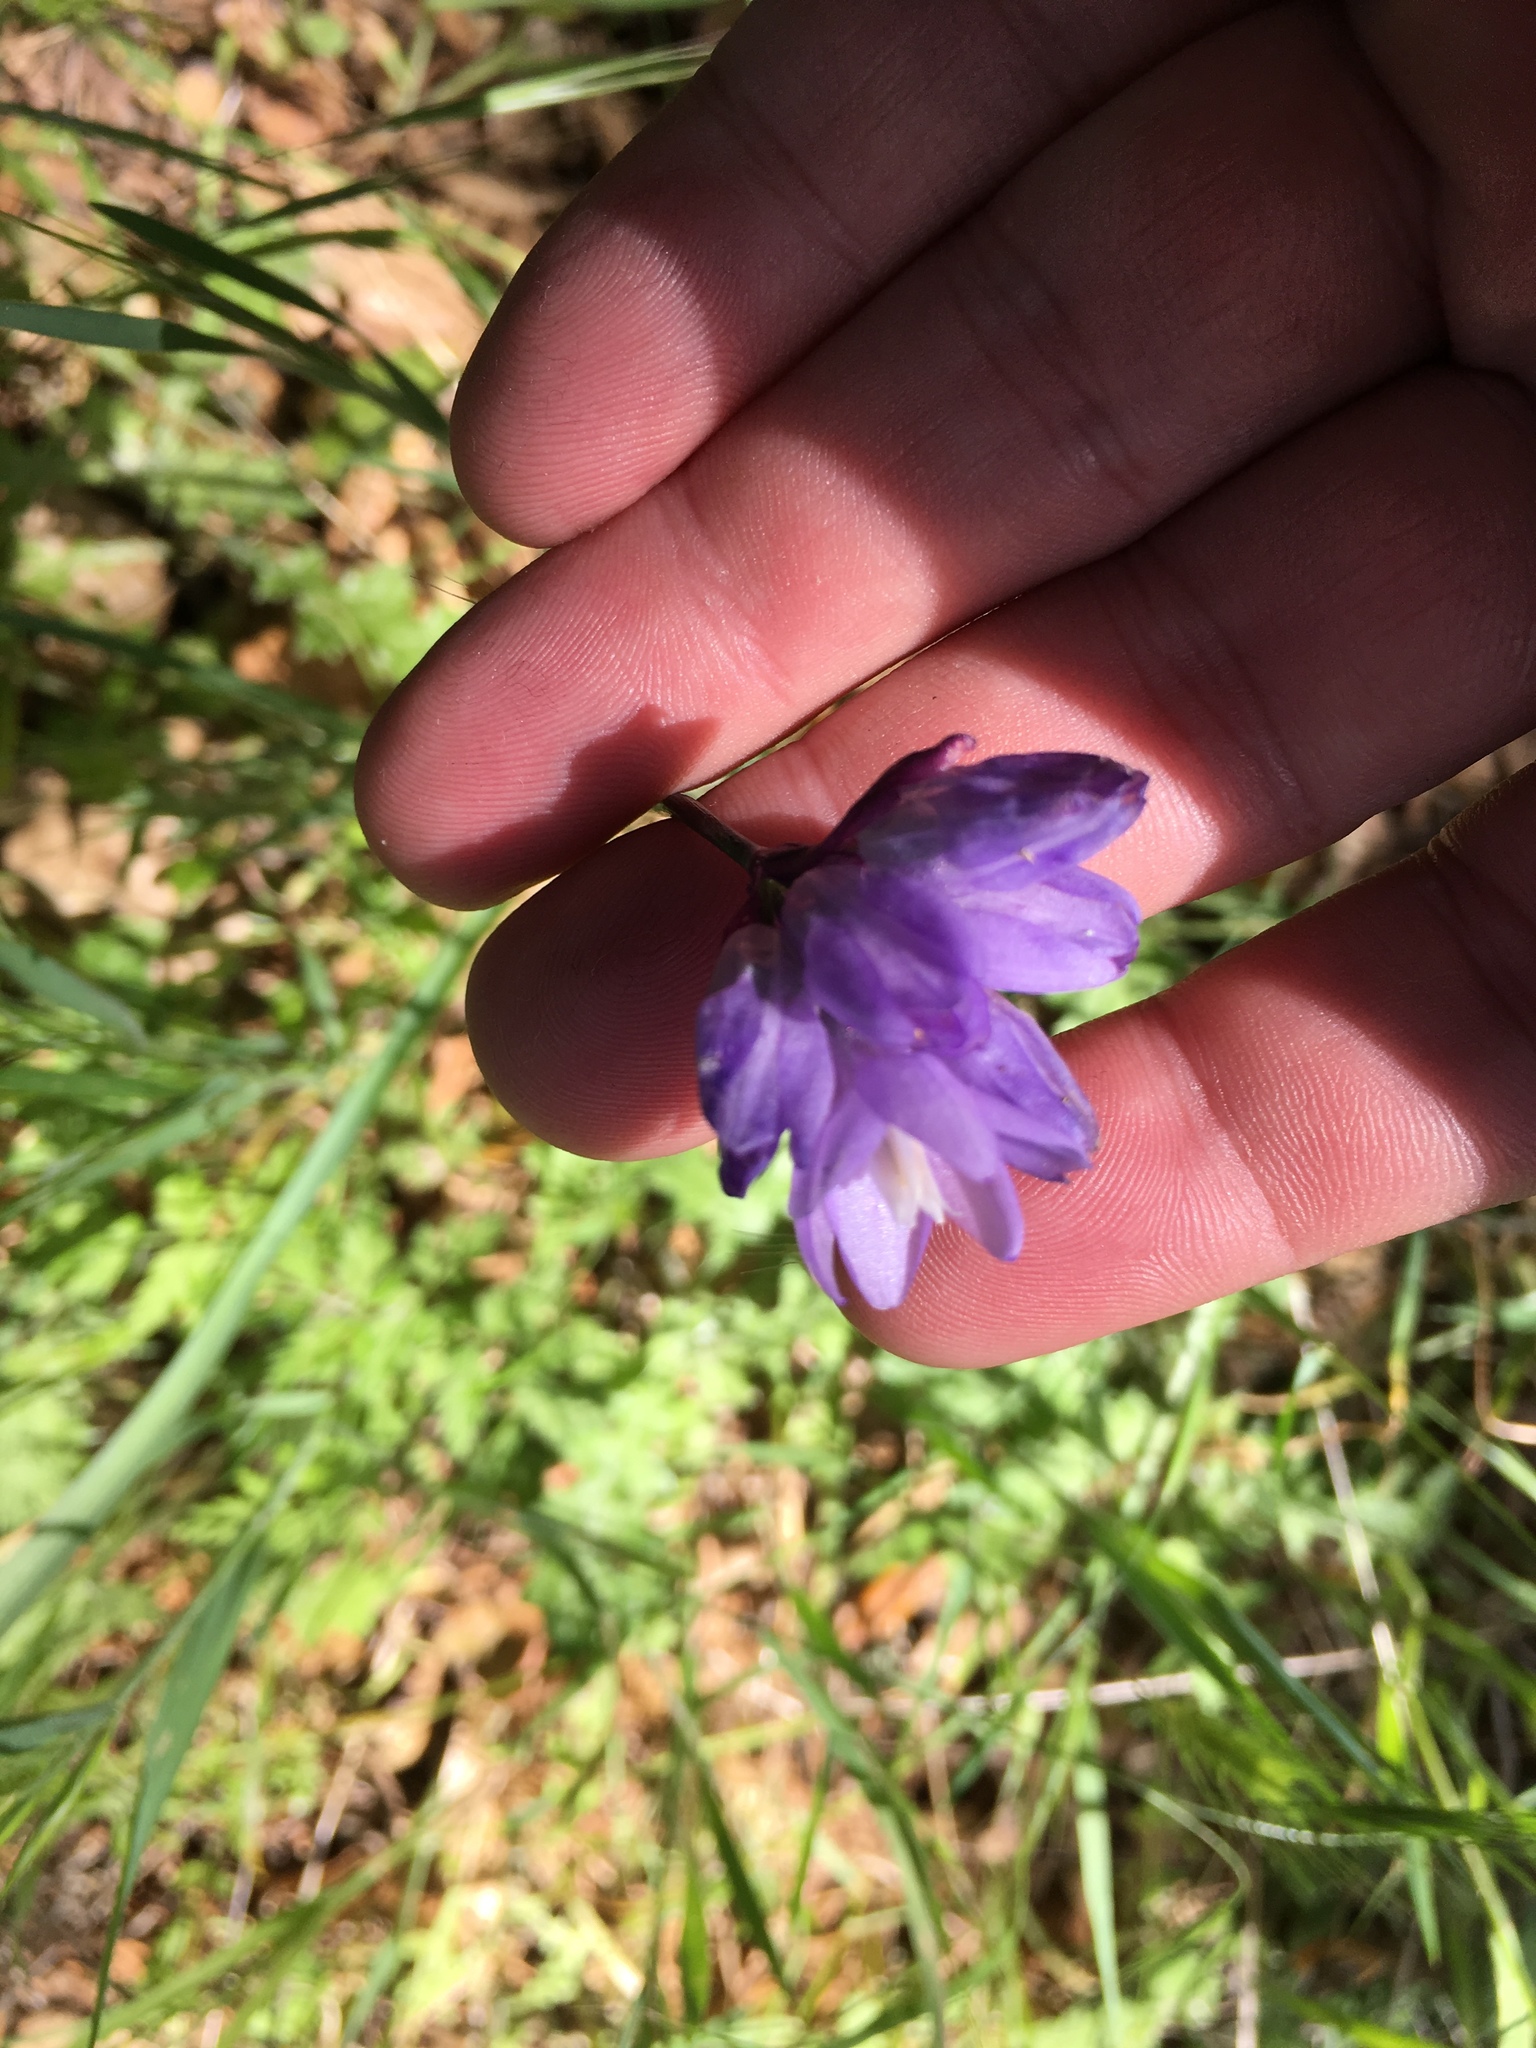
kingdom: Plantae
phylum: Tracheophyta
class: Liliopsida
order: Asparagales
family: Asparagaceae
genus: Dipterostemon
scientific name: Dipterostemon capitatus
